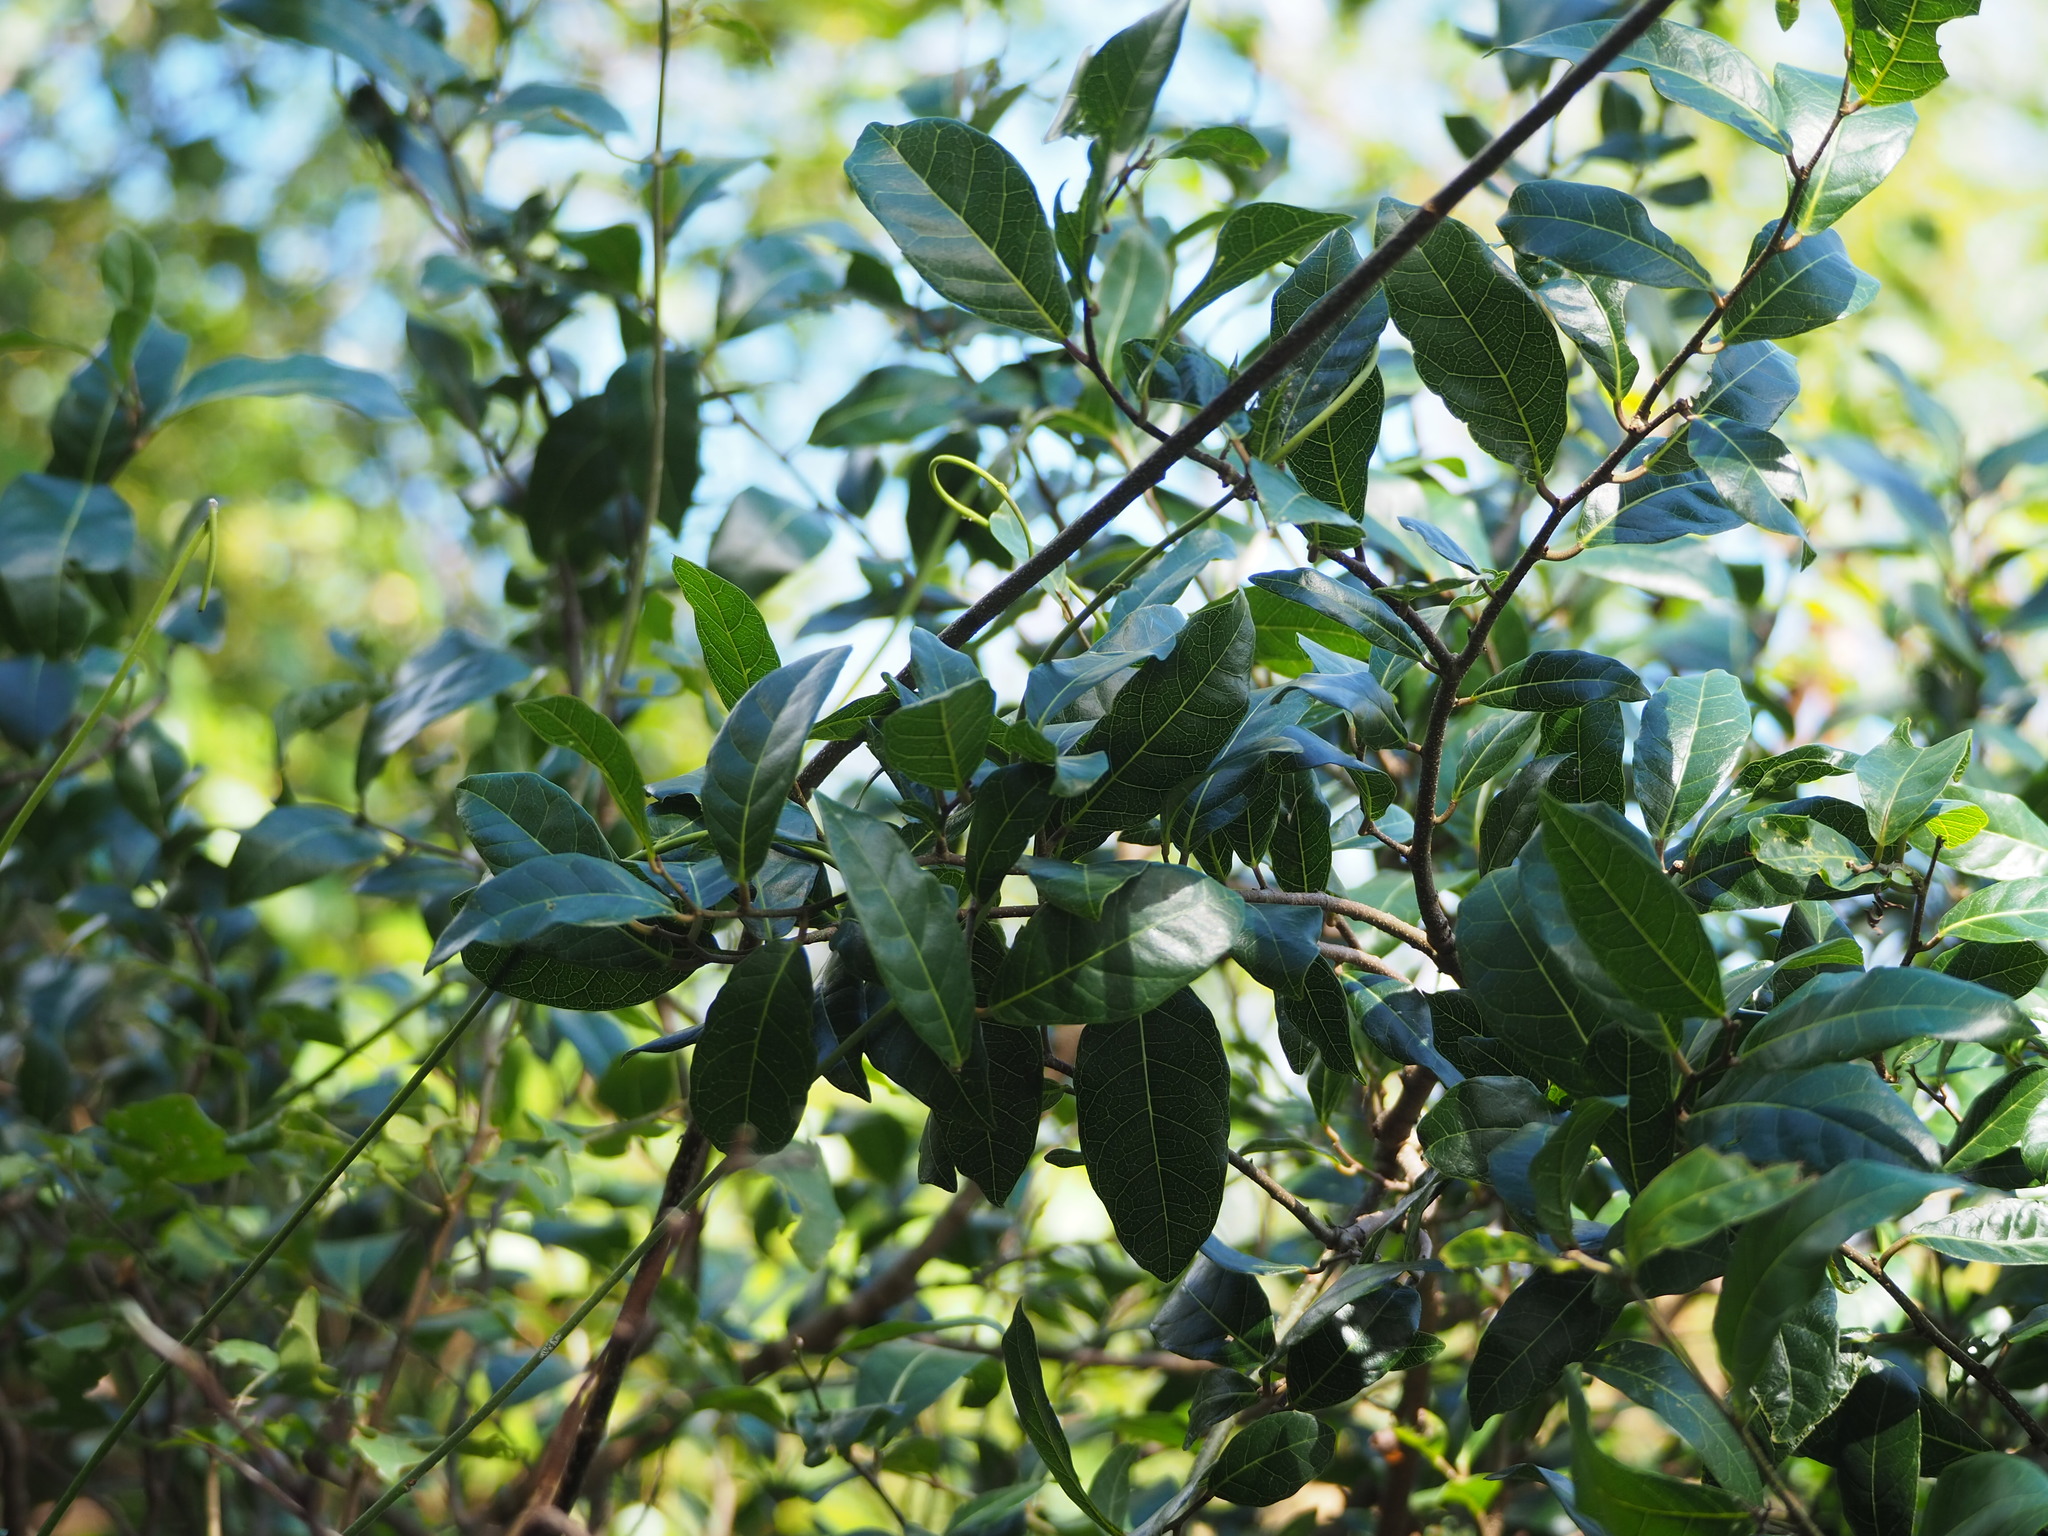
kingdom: Plantae
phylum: Tracheophyta
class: Magnoliopsida
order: Rosales
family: Moraceae
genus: Malaisia
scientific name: Malaisia scandens
